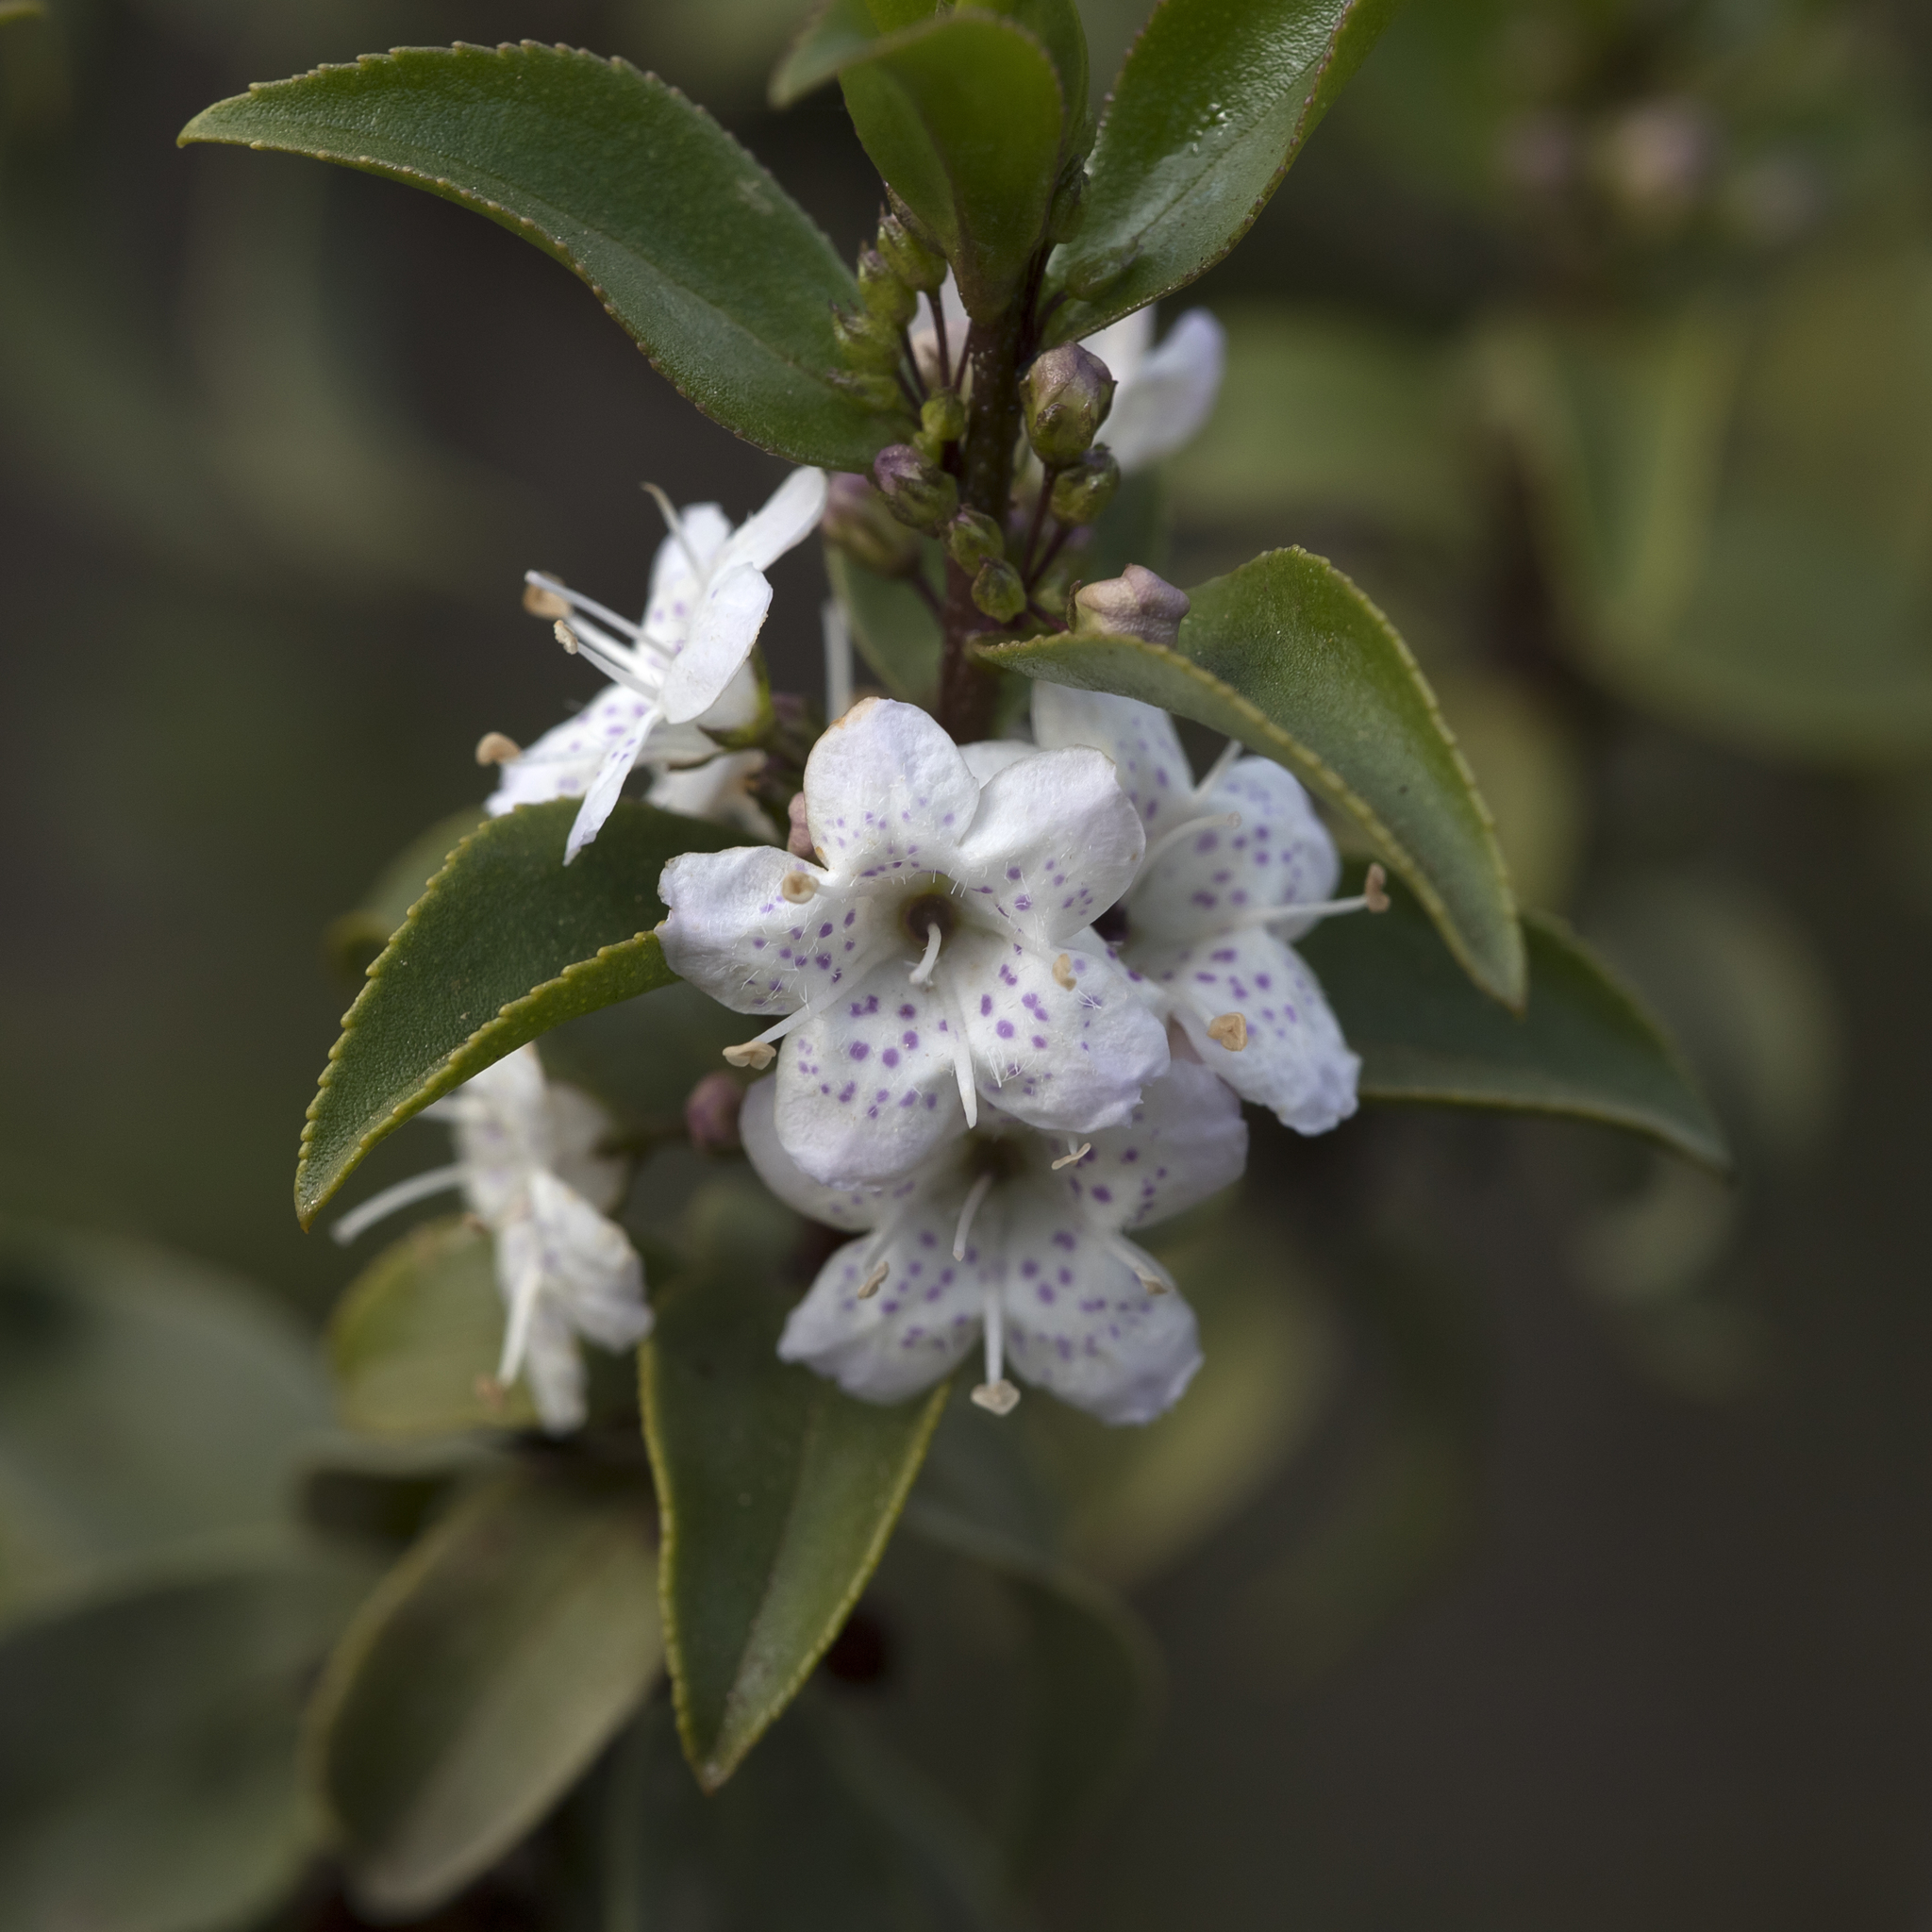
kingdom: Plantae
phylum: Tracheophyta
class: Magnoliopsida
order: Lamiales
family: Scrophulariaceae
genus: Myoporum
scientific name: Myoporum viscosum
